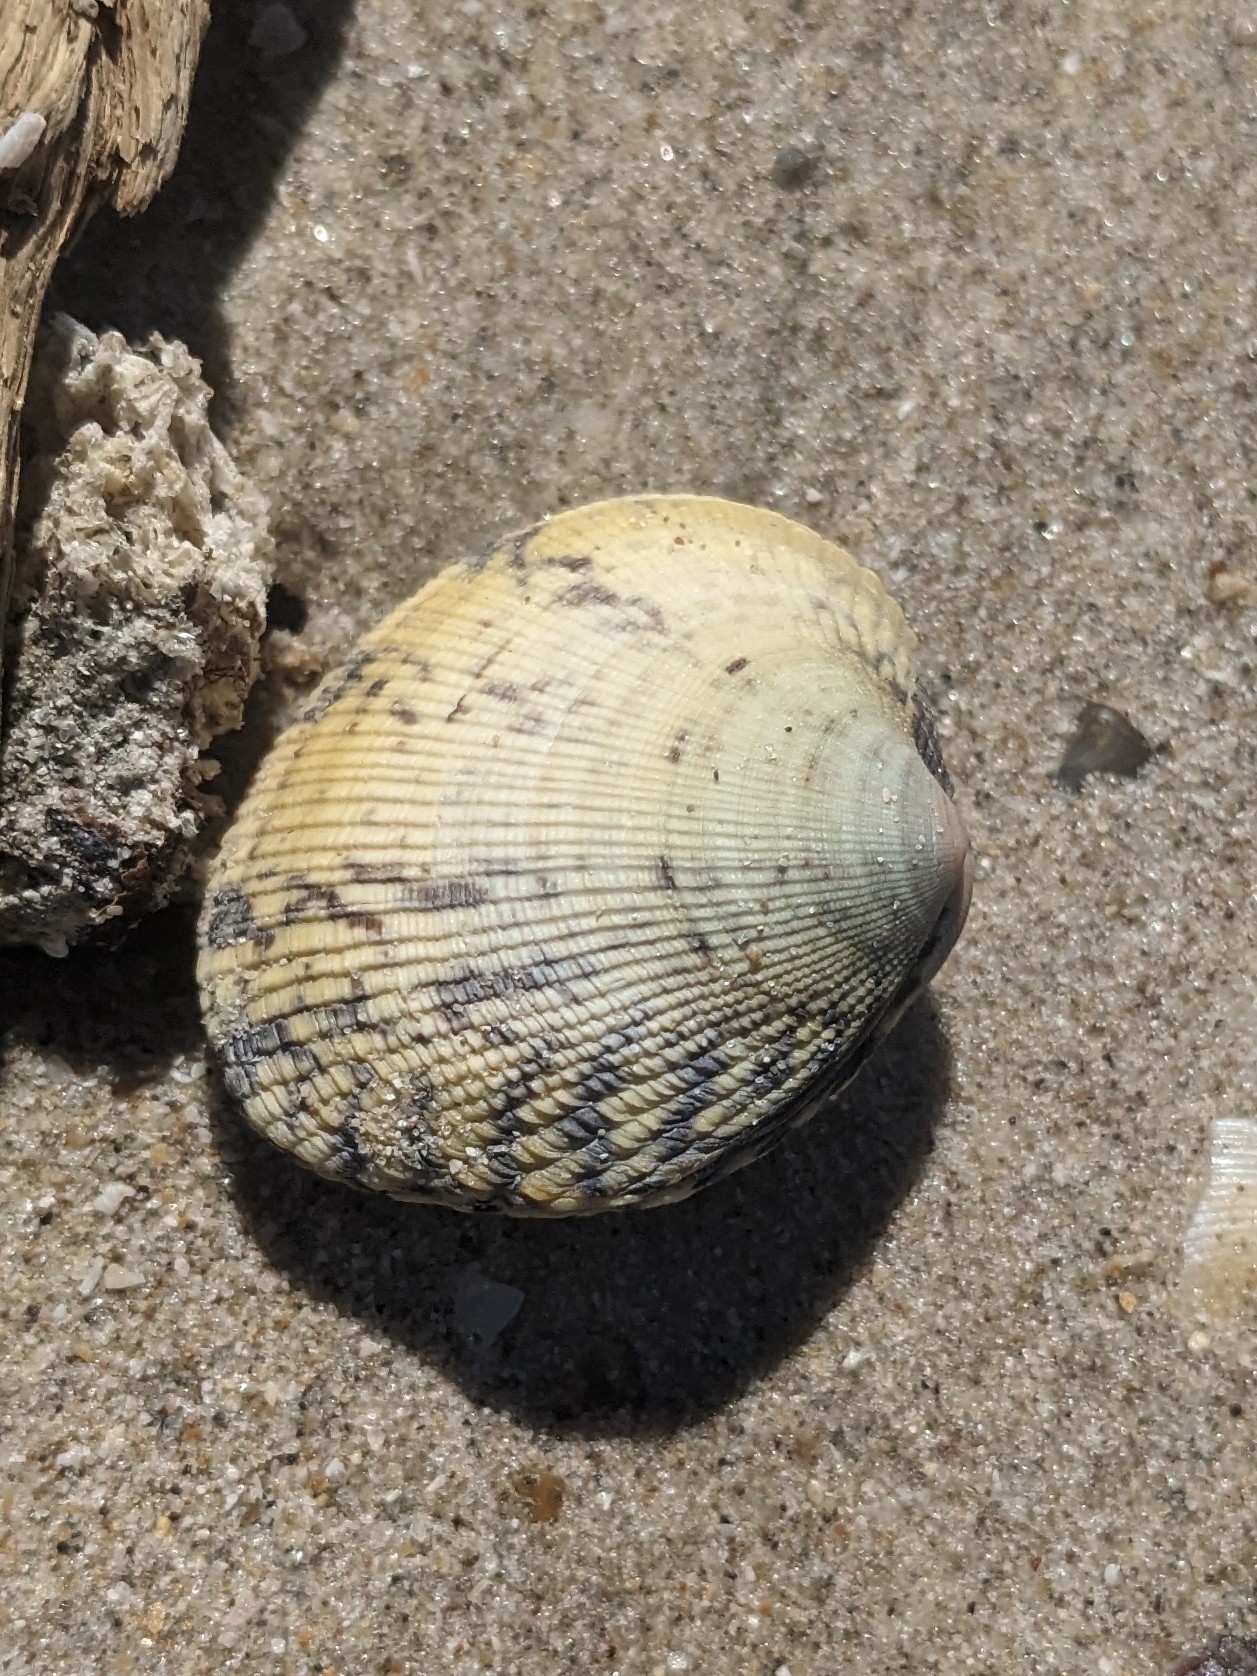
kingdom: Animalia
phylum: Mollusca
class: Bivalvia
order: Venerida
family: Veneridae
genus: Leukoma
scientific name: Leukoma grata
